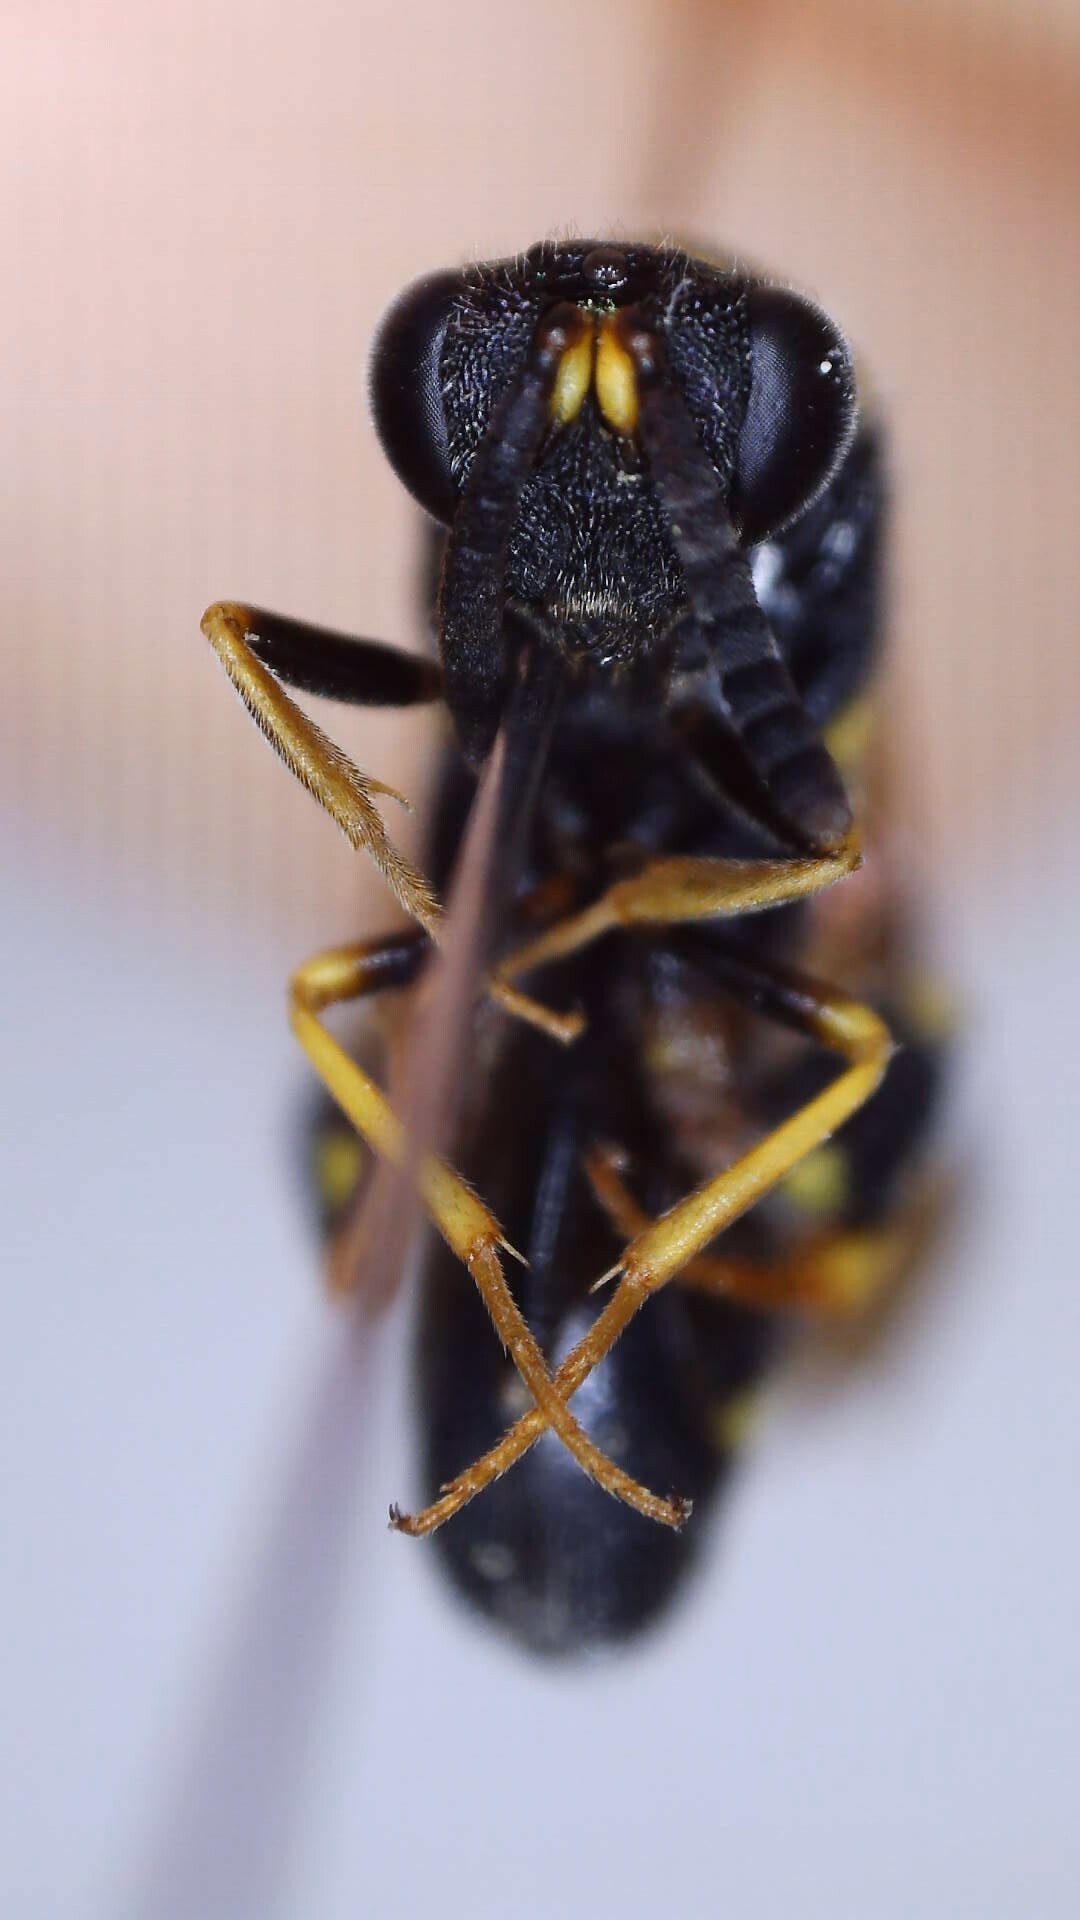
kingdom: Animalia
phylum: Arthropoda
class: Insecta
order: Hymenoptera
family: Leucospidae
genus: Leucospis
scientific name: Leucospis affinis
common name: Wasp
